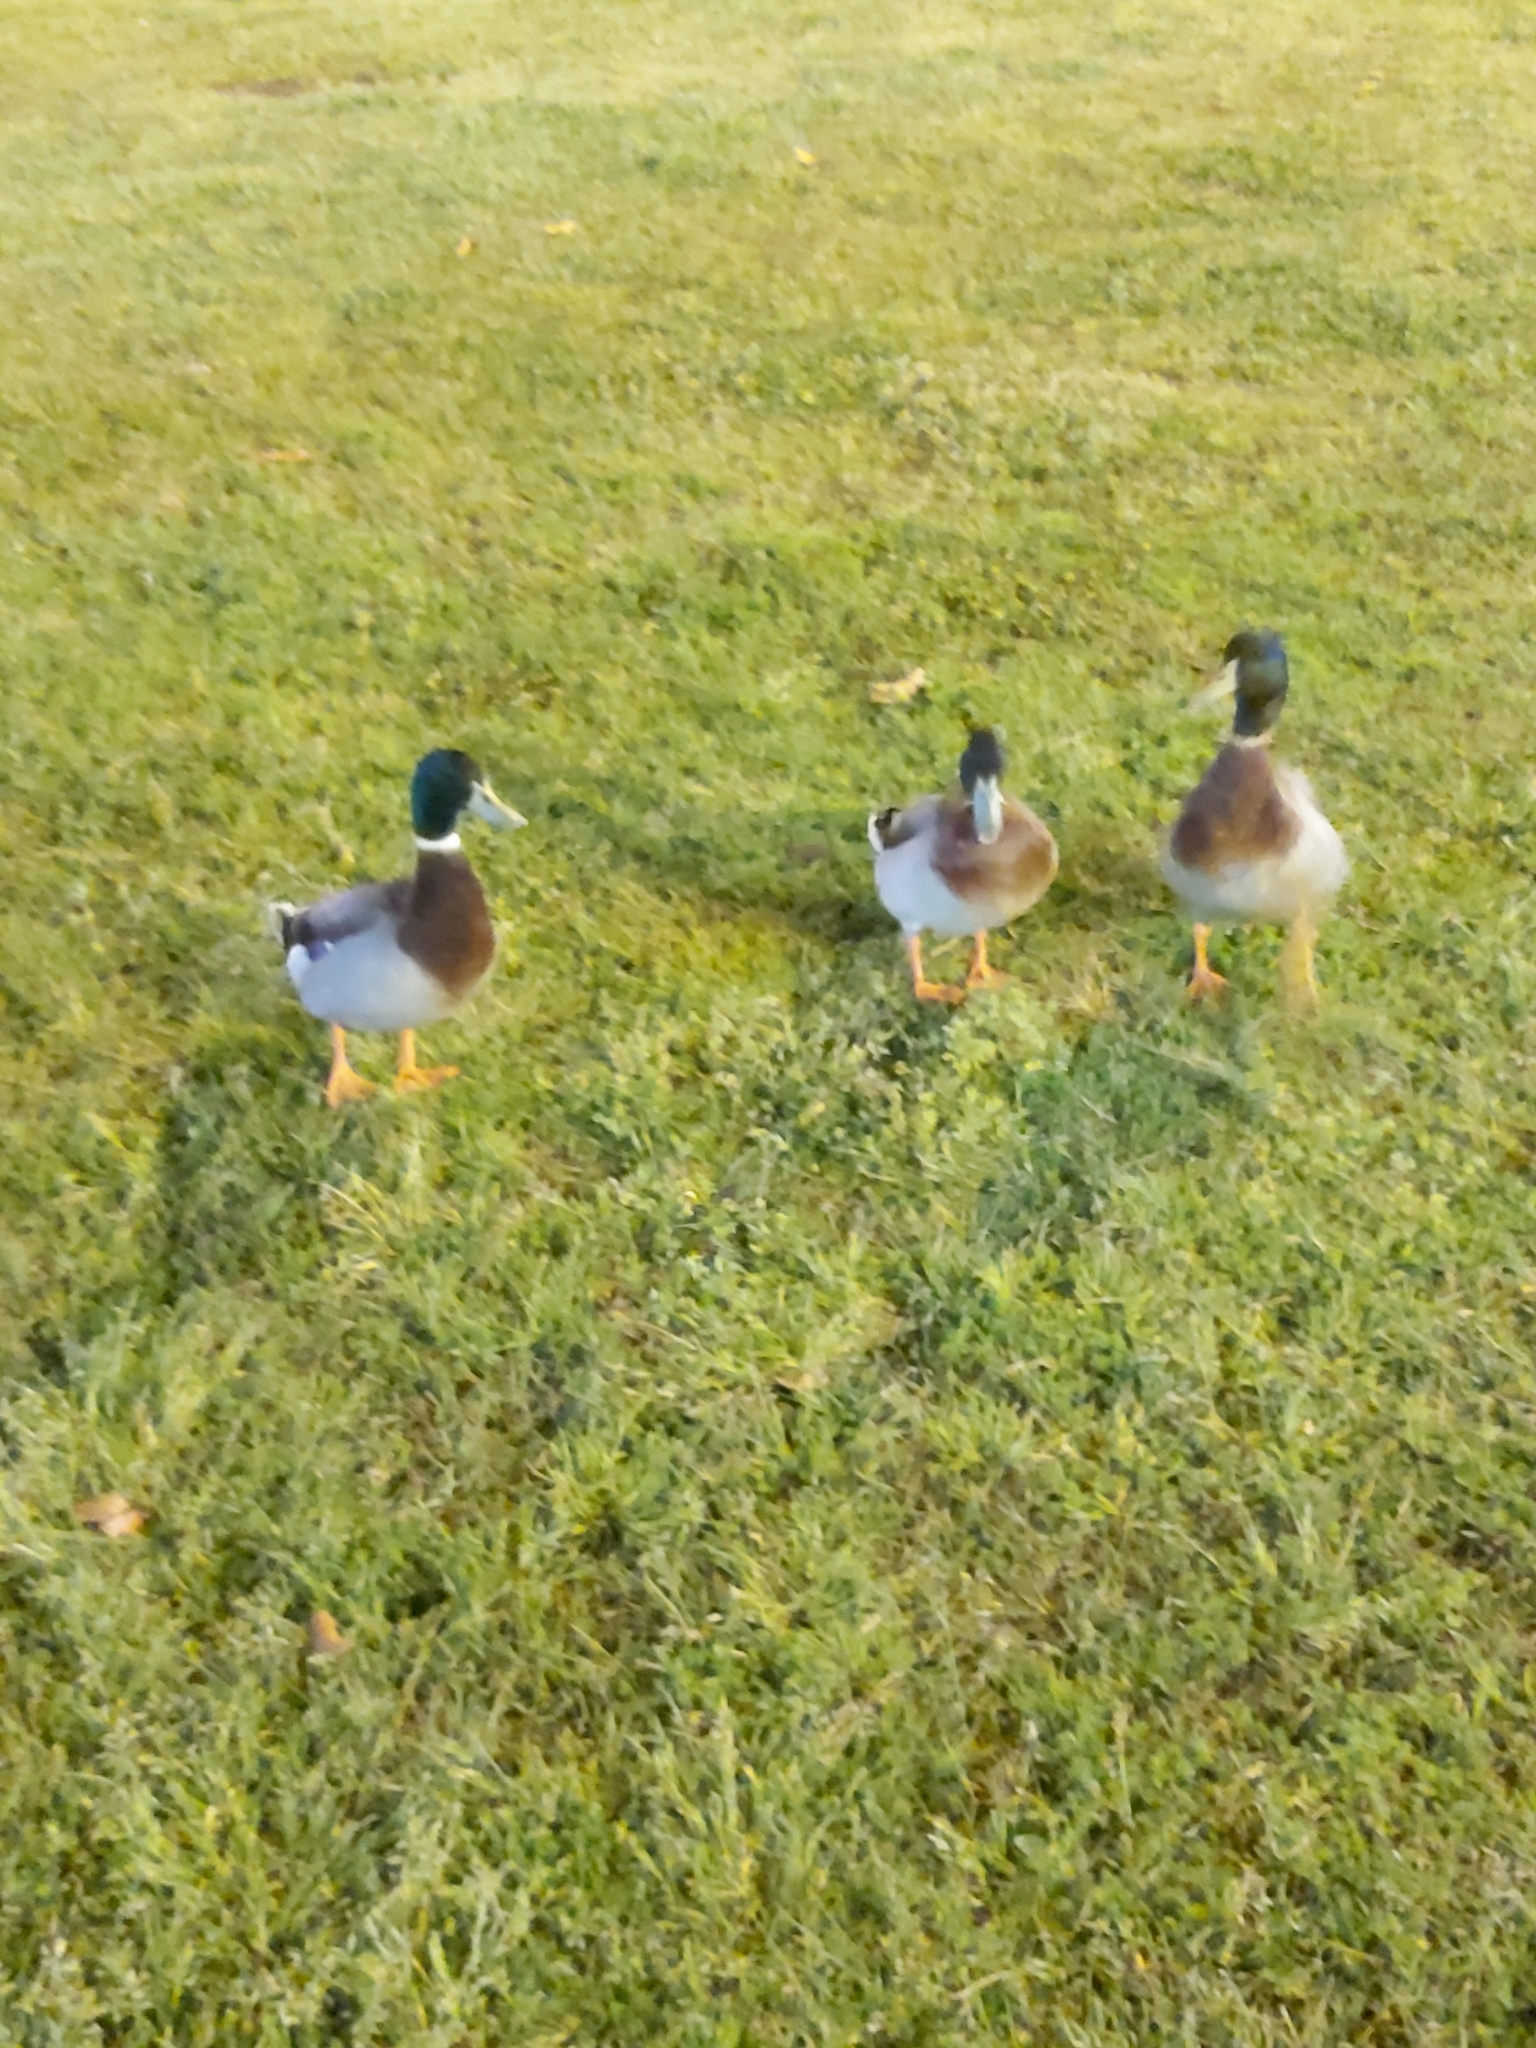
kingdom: Animalia
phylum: Chordata
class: Aves
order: Anseriformes
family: Anatidae
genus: Anas
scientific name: Anas platyrhynchos
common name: Mallard
